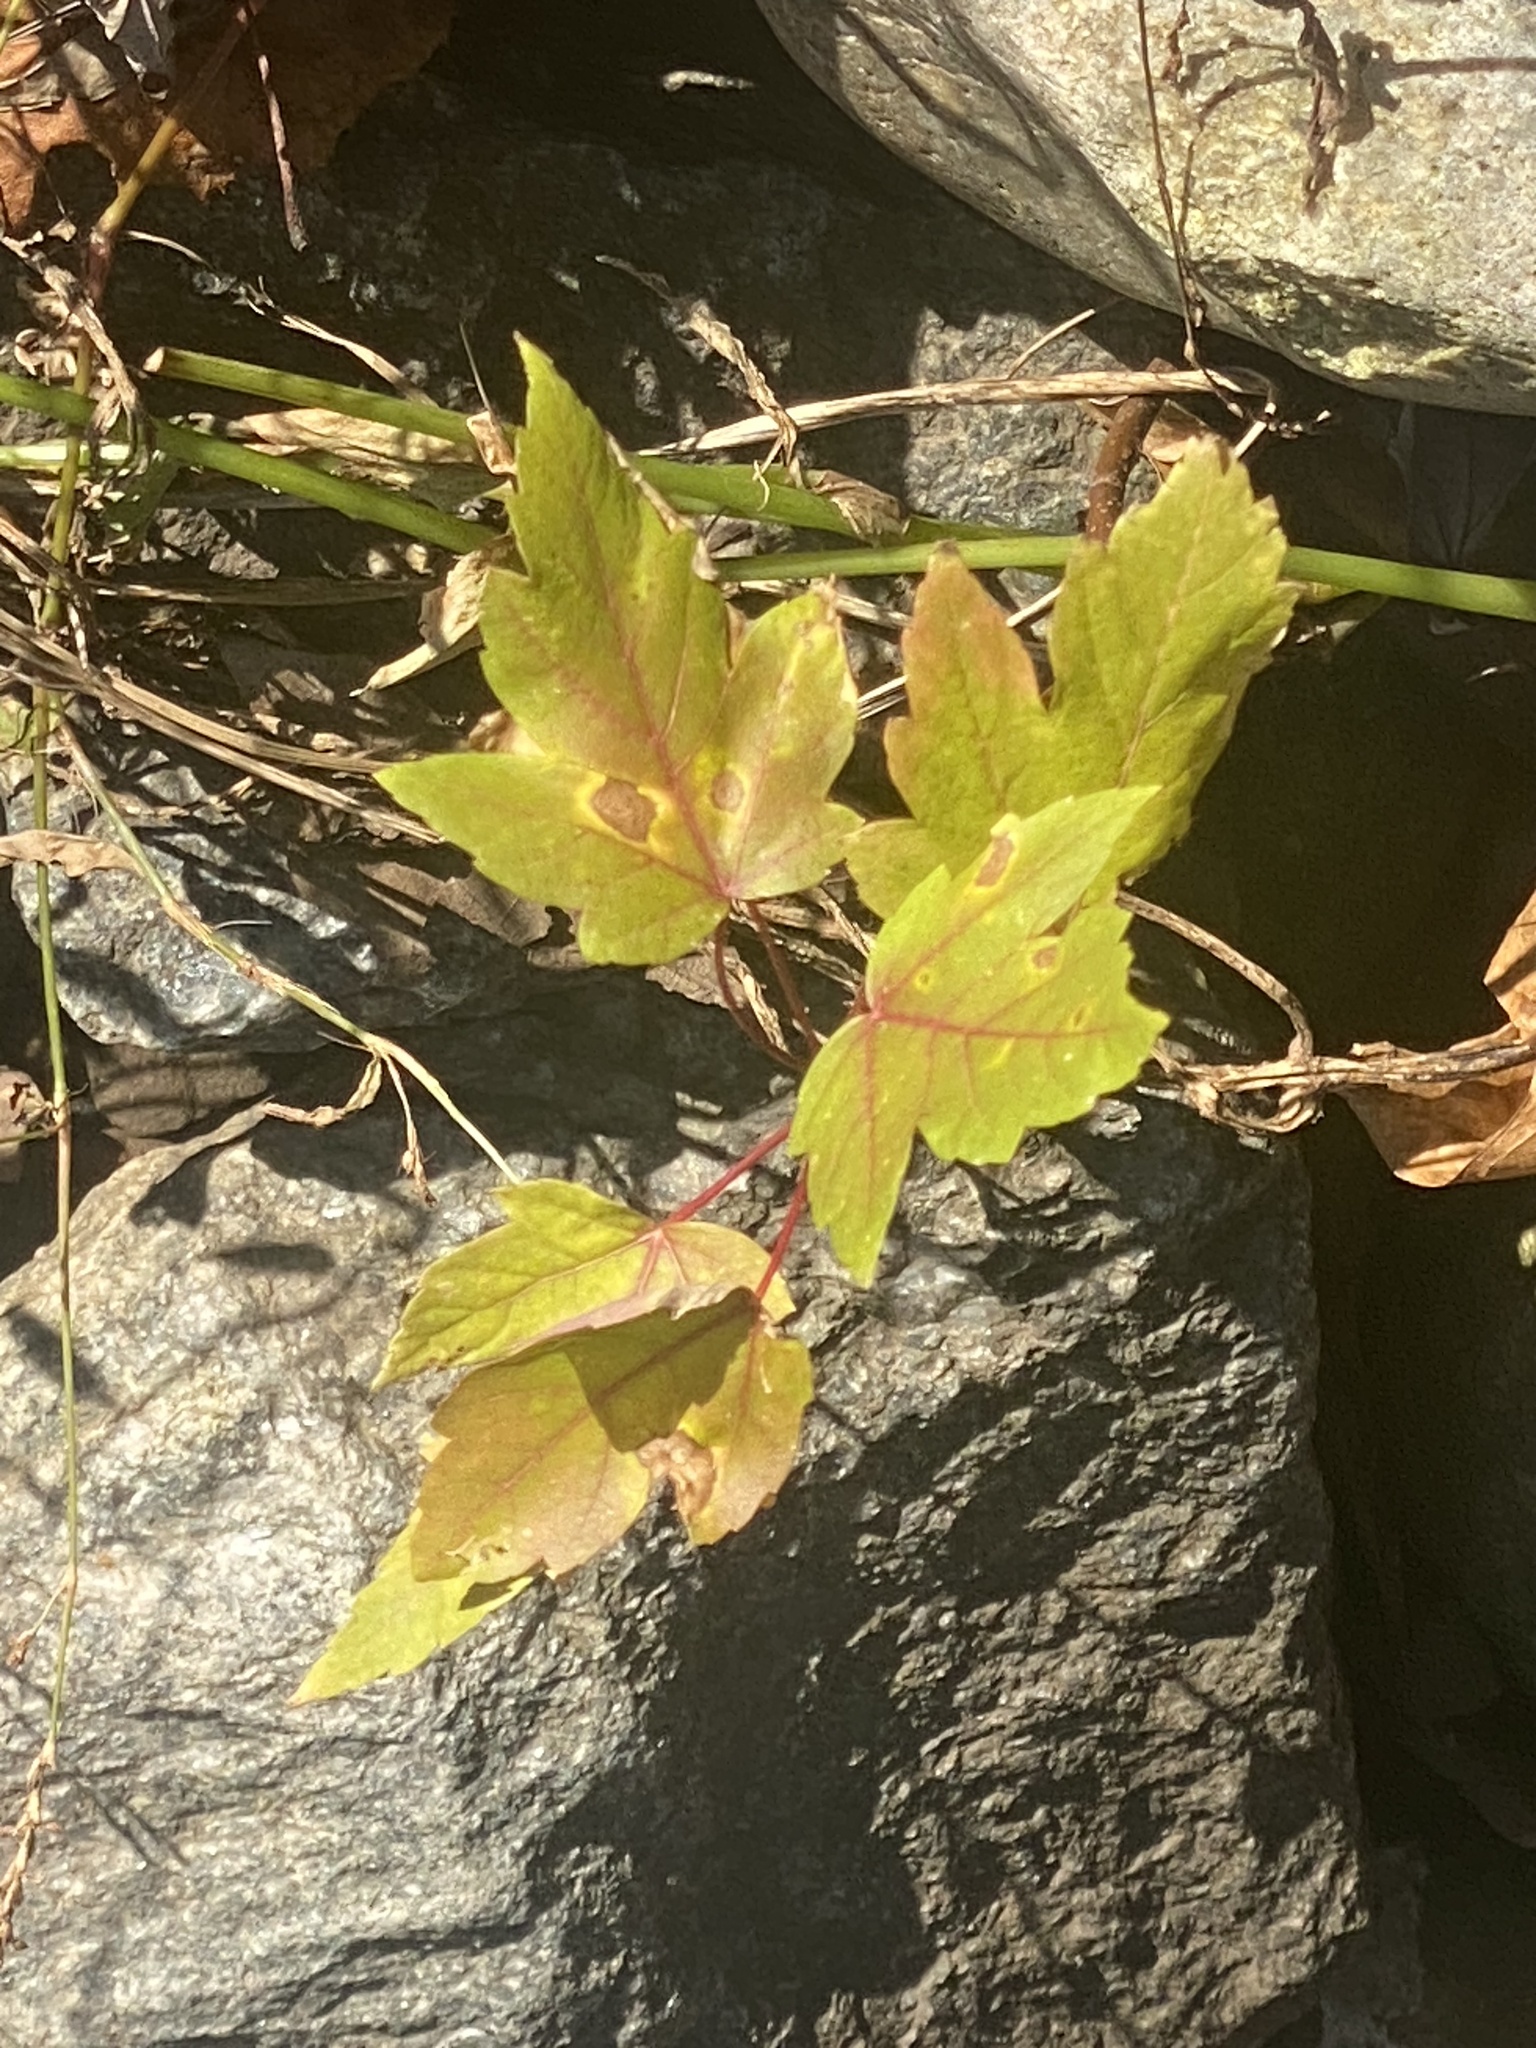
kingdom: Plantae
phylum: Tracheophyta
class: Magnoliopsida
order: Sapindales
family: Sapindaceae
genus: Acer
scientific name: Acer rubrum
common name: Red maple
